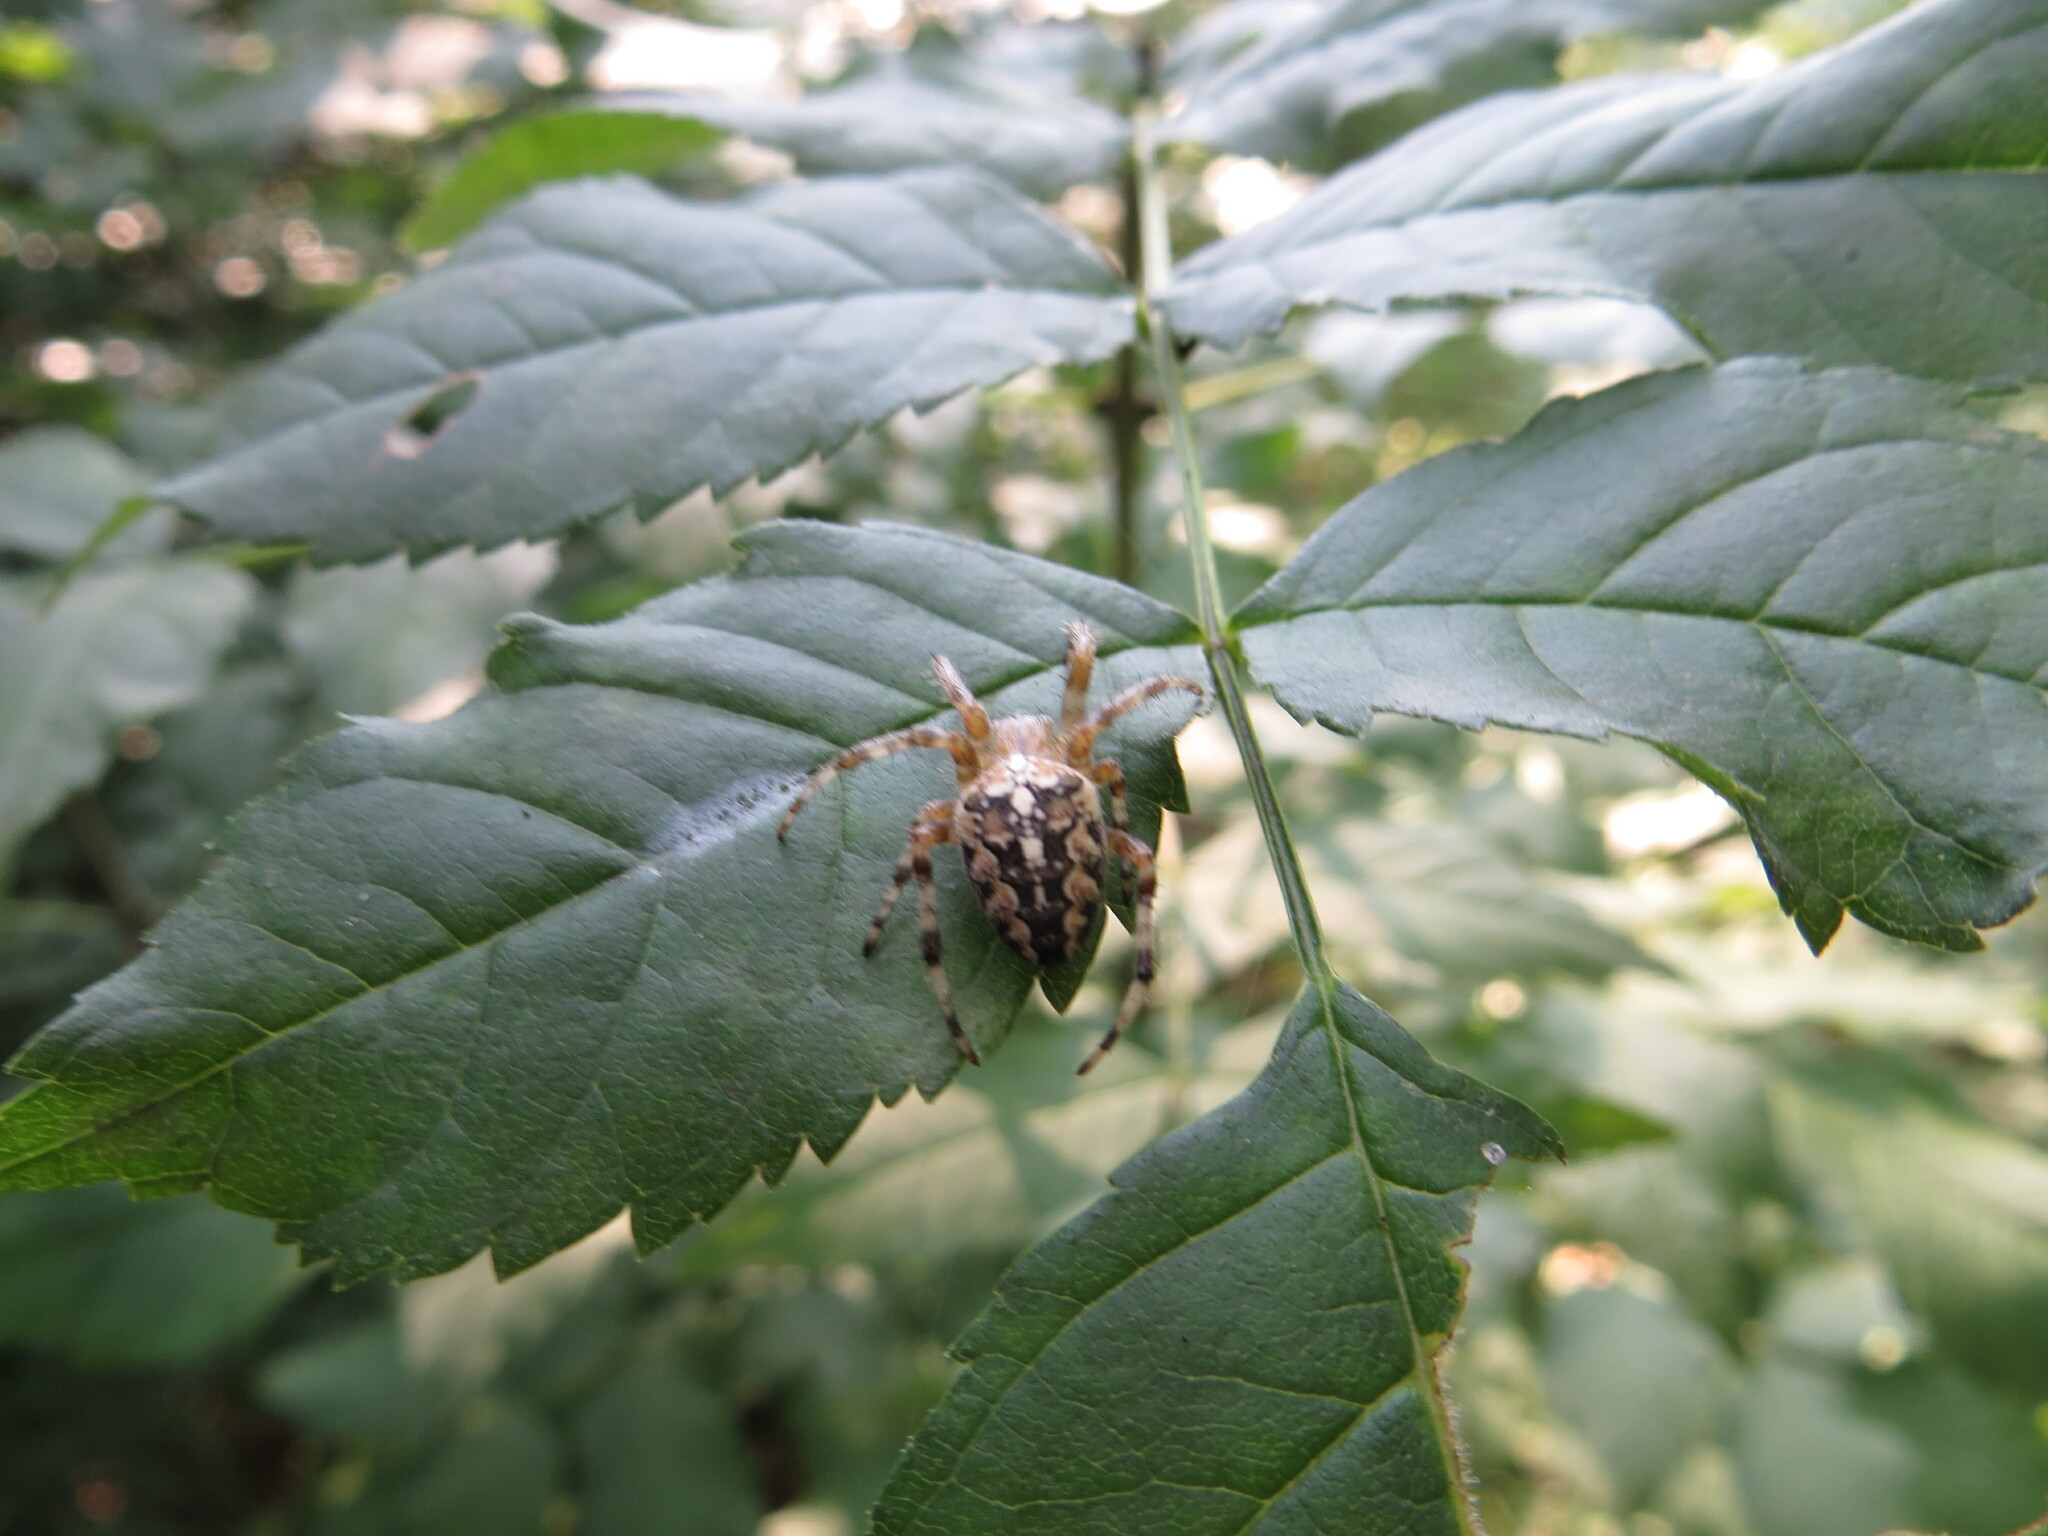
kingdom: Animalia
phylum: Arthropoda
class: Arachnida
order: Araneae
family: Araneidae
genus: Araneus
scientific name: Araneus diadematus
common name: Cross orbweaver
